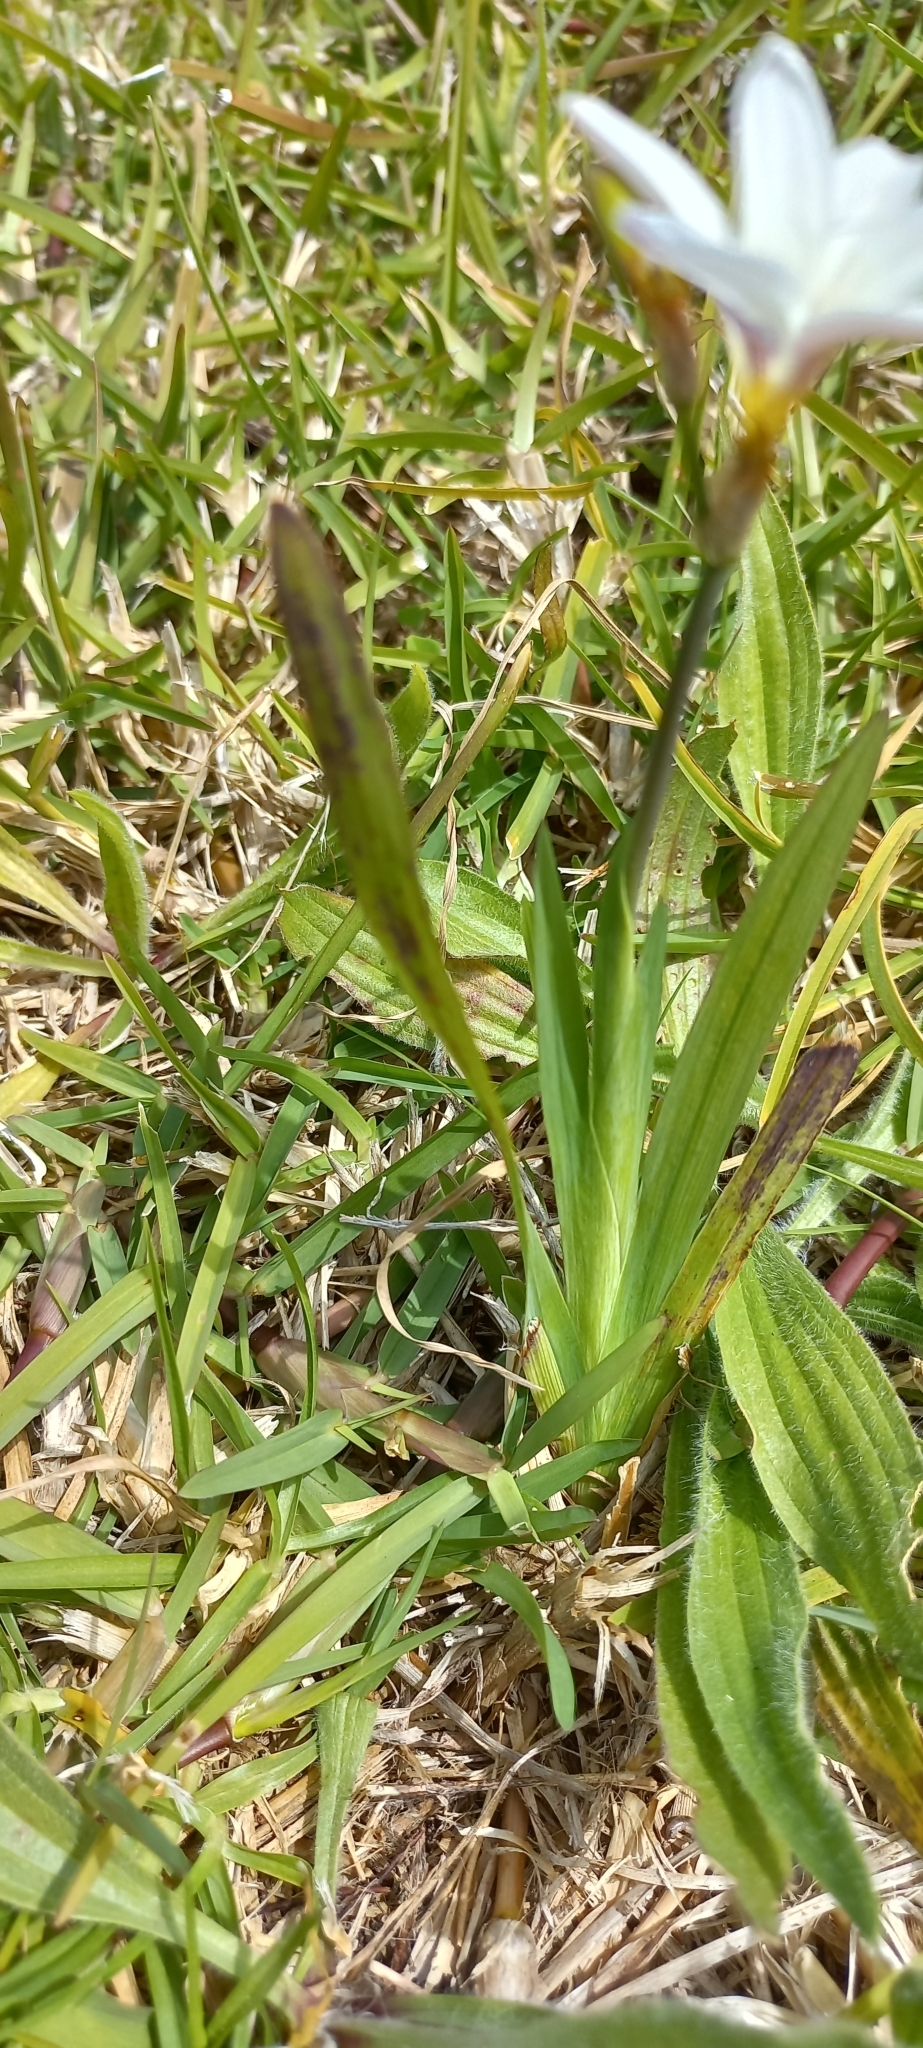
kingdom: Plantae
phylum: Tracheophyta
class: Liliopsida
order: Asparagales
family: Iridaceae
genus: Sparaxis
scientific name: Sparaxis bulbifera
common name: Harlequin-flower
